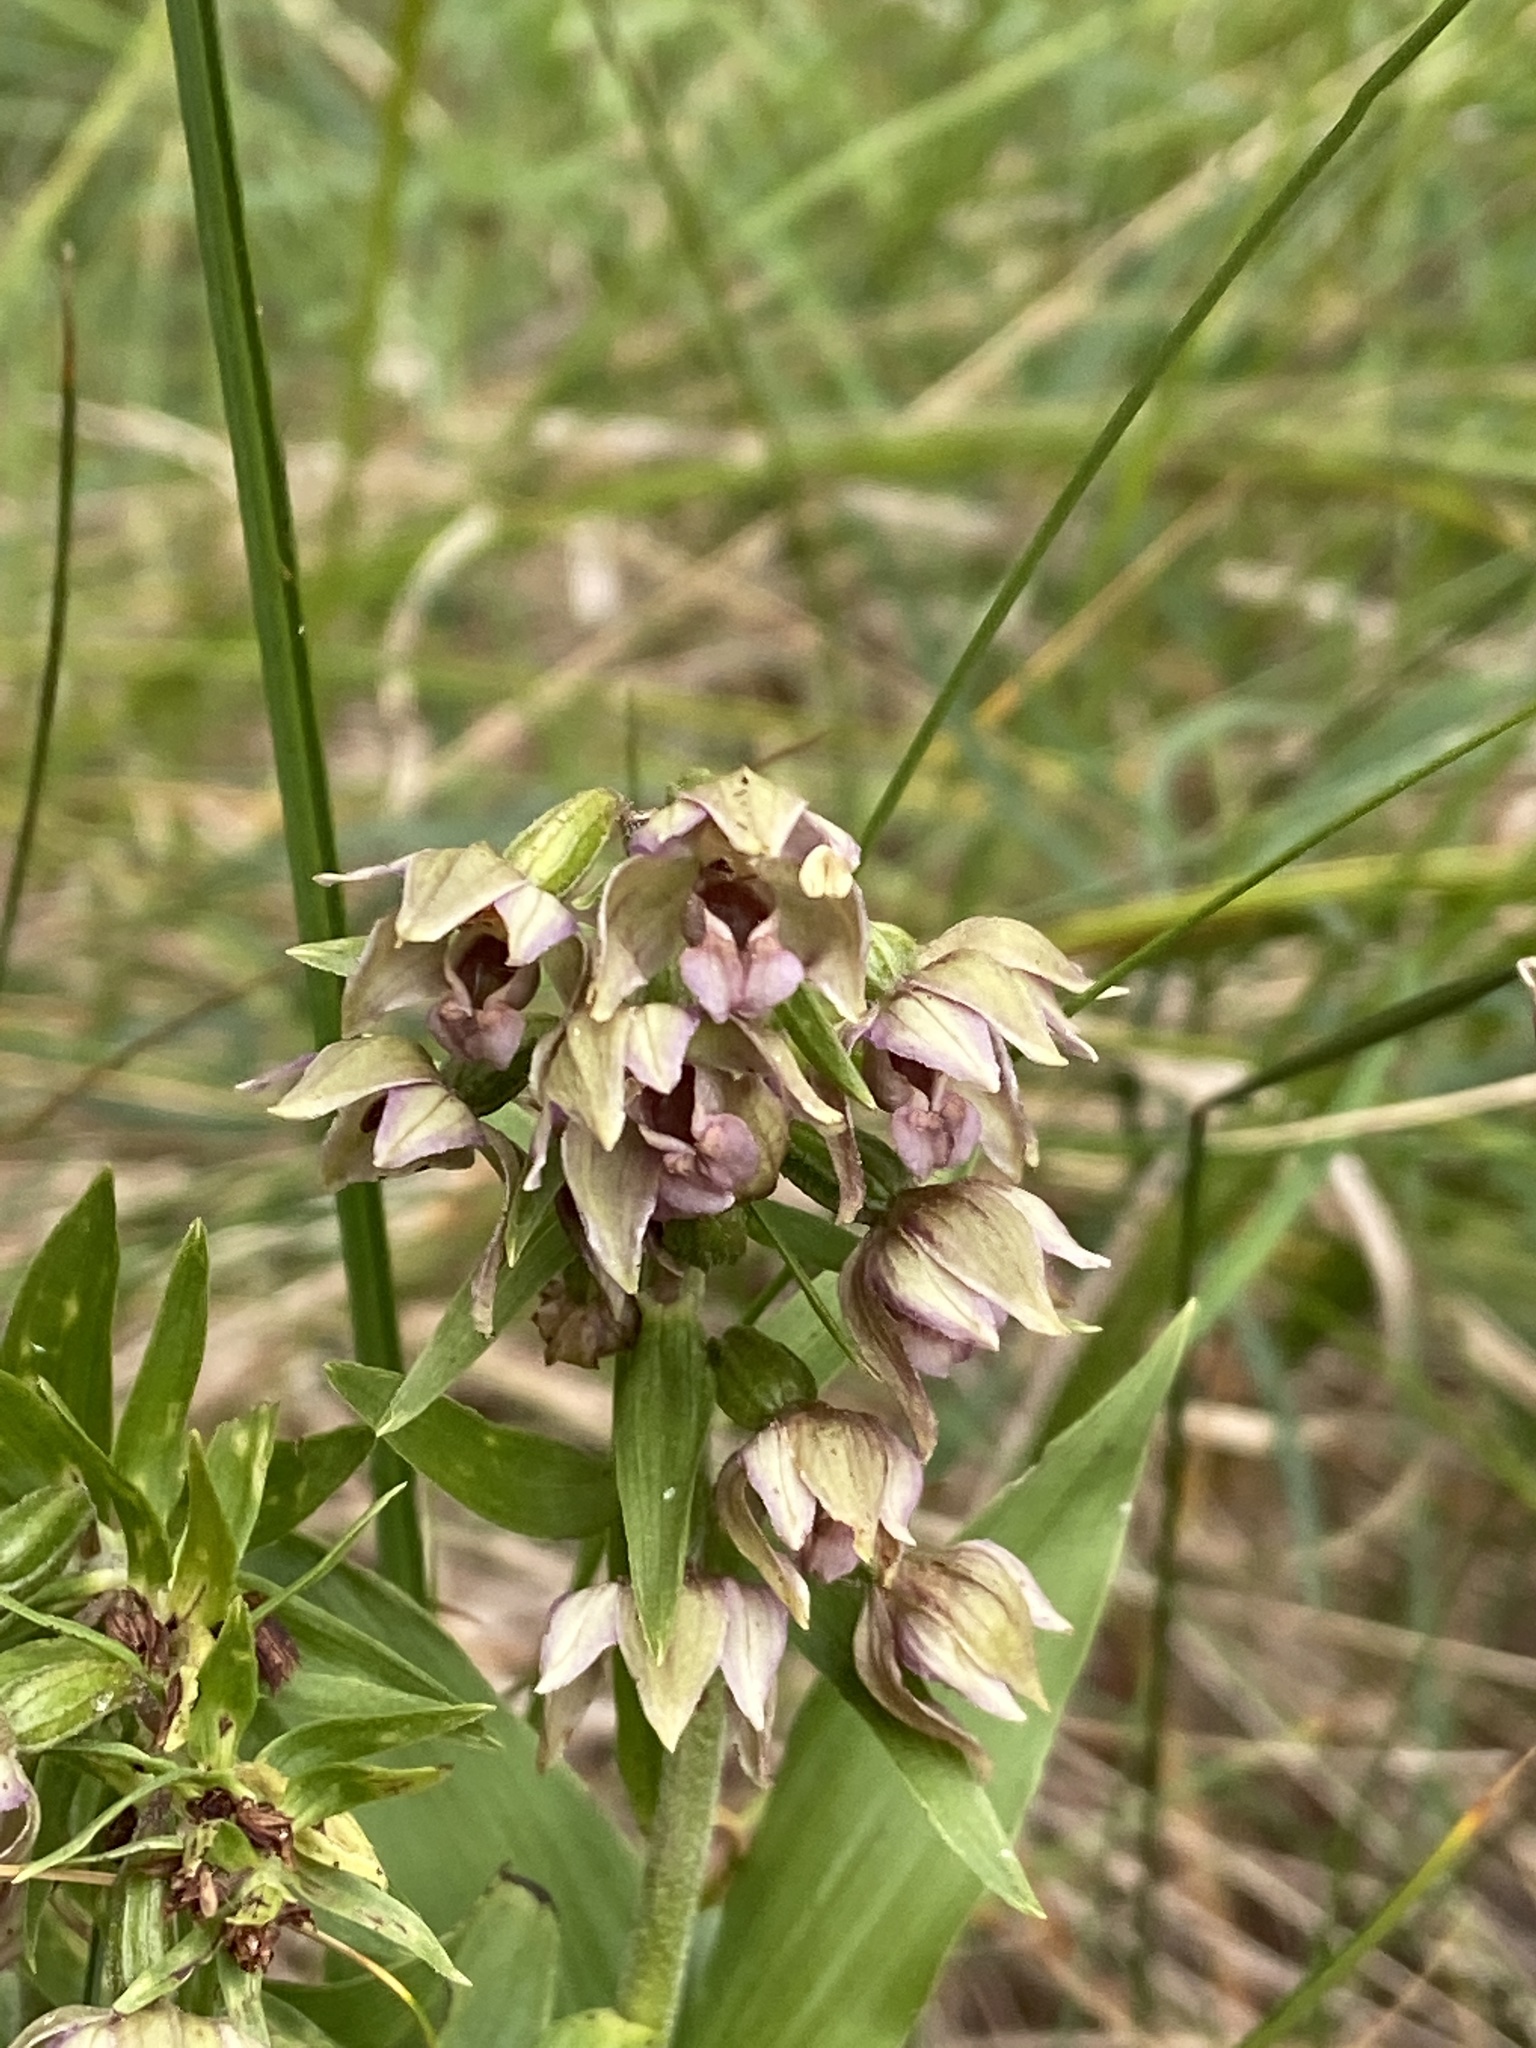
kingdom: Plantae
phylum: Tracheophyta
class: Liliopsida
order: Asparagales
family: Orchidaceae
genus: Epipactis
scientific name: Epipactis helleborine
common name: Broad-leaved helleborine
